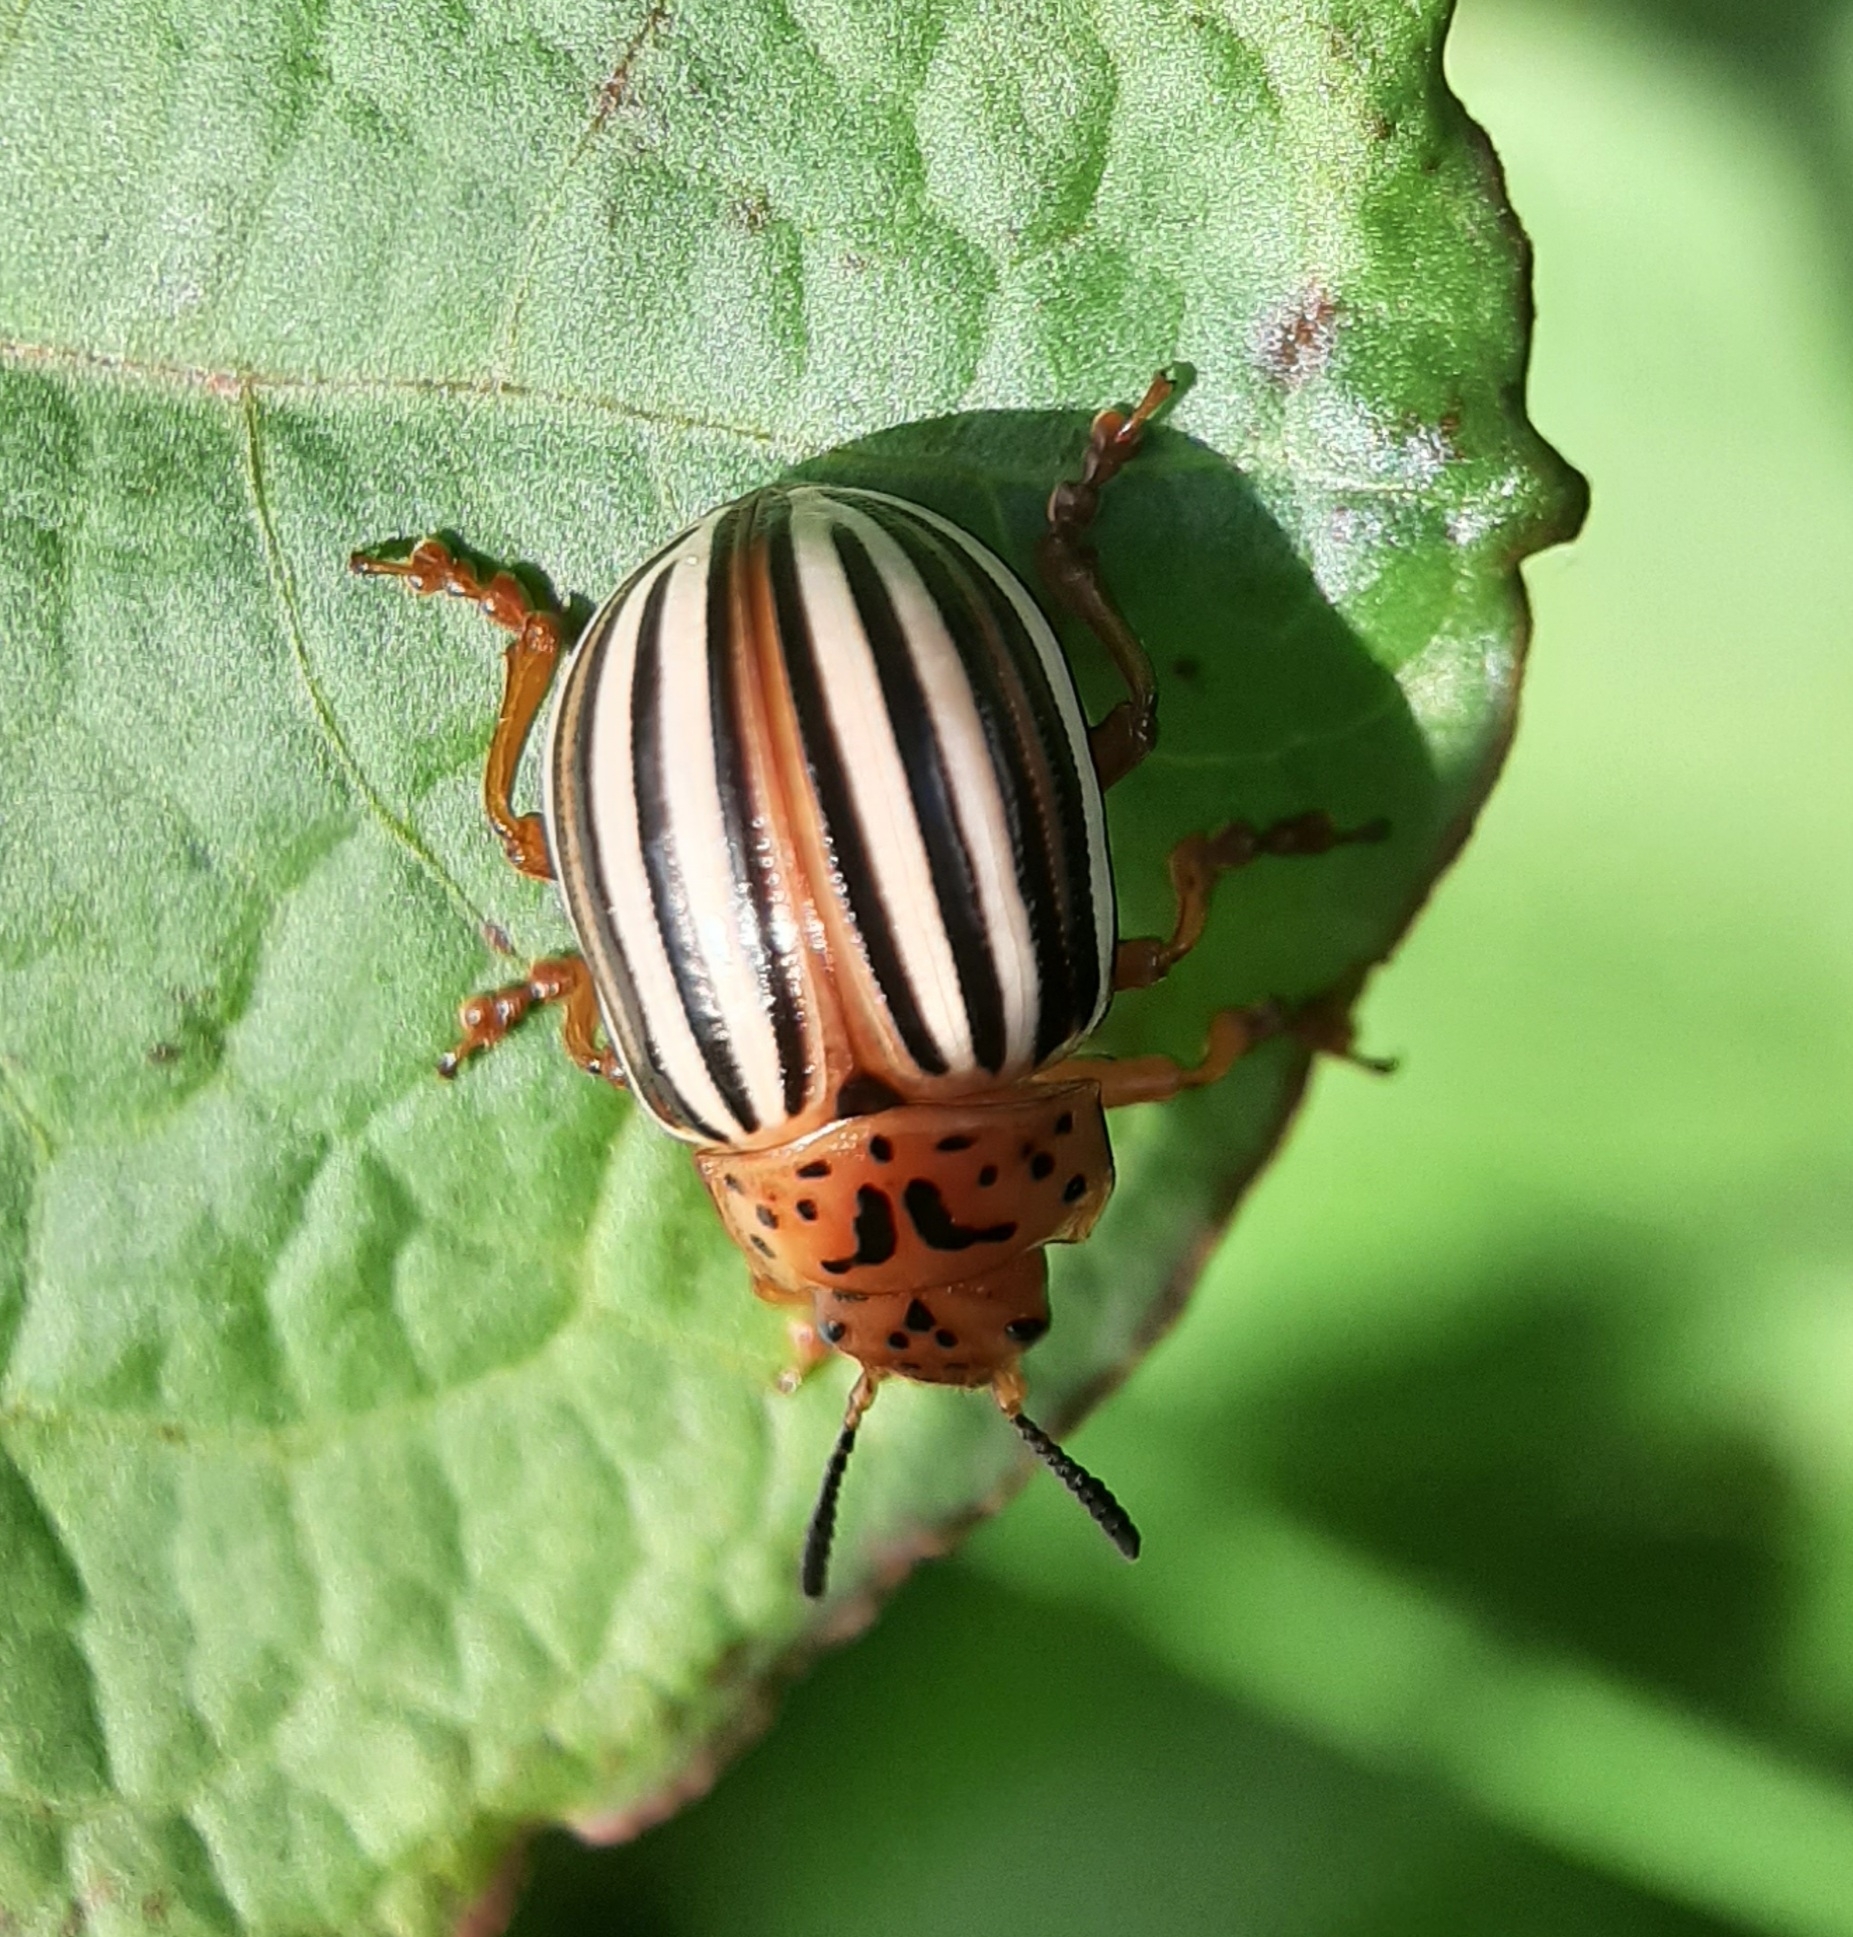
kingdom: Animalia
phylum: Arthropoda
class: Insecta
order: Coleoptera
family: Chrysomelidae
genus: Leptinotarsa
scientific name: Leptinotarsa juncta
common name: False potato beetle
